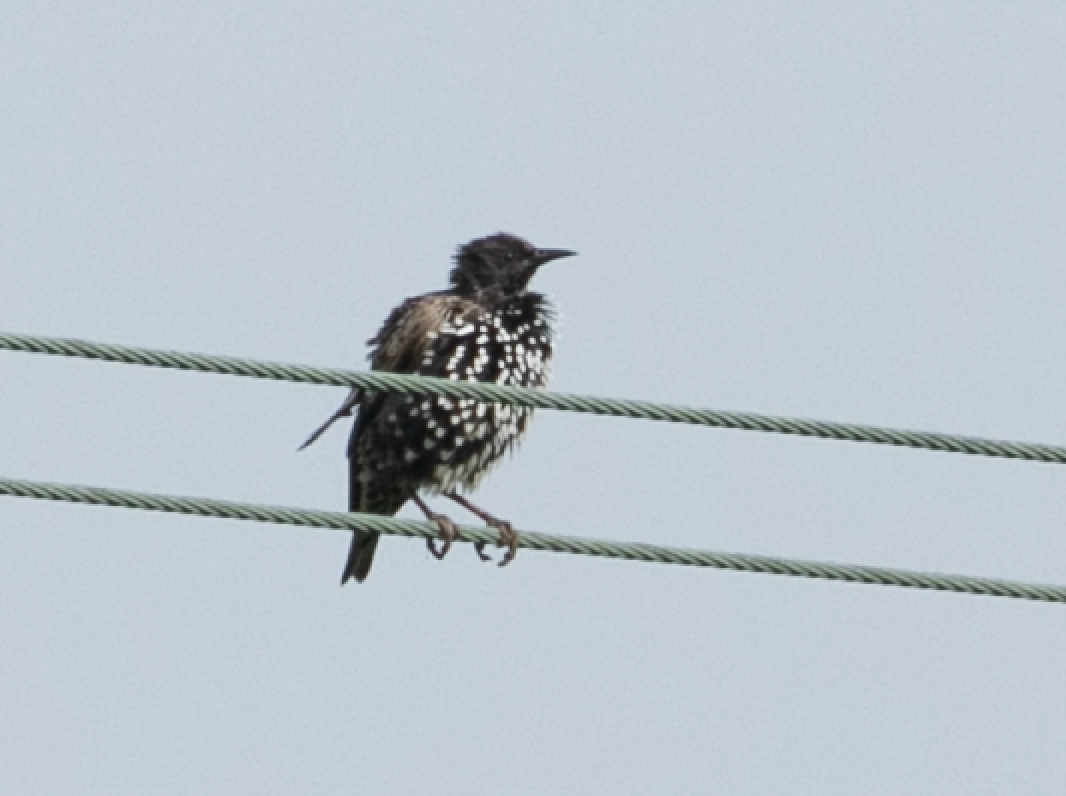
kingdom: Animalia
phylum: Chordata
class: Aves
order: Passeriformes
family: Sturnidae
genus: Sturnus
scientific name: Sturnus vulgaris
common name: Common starling
